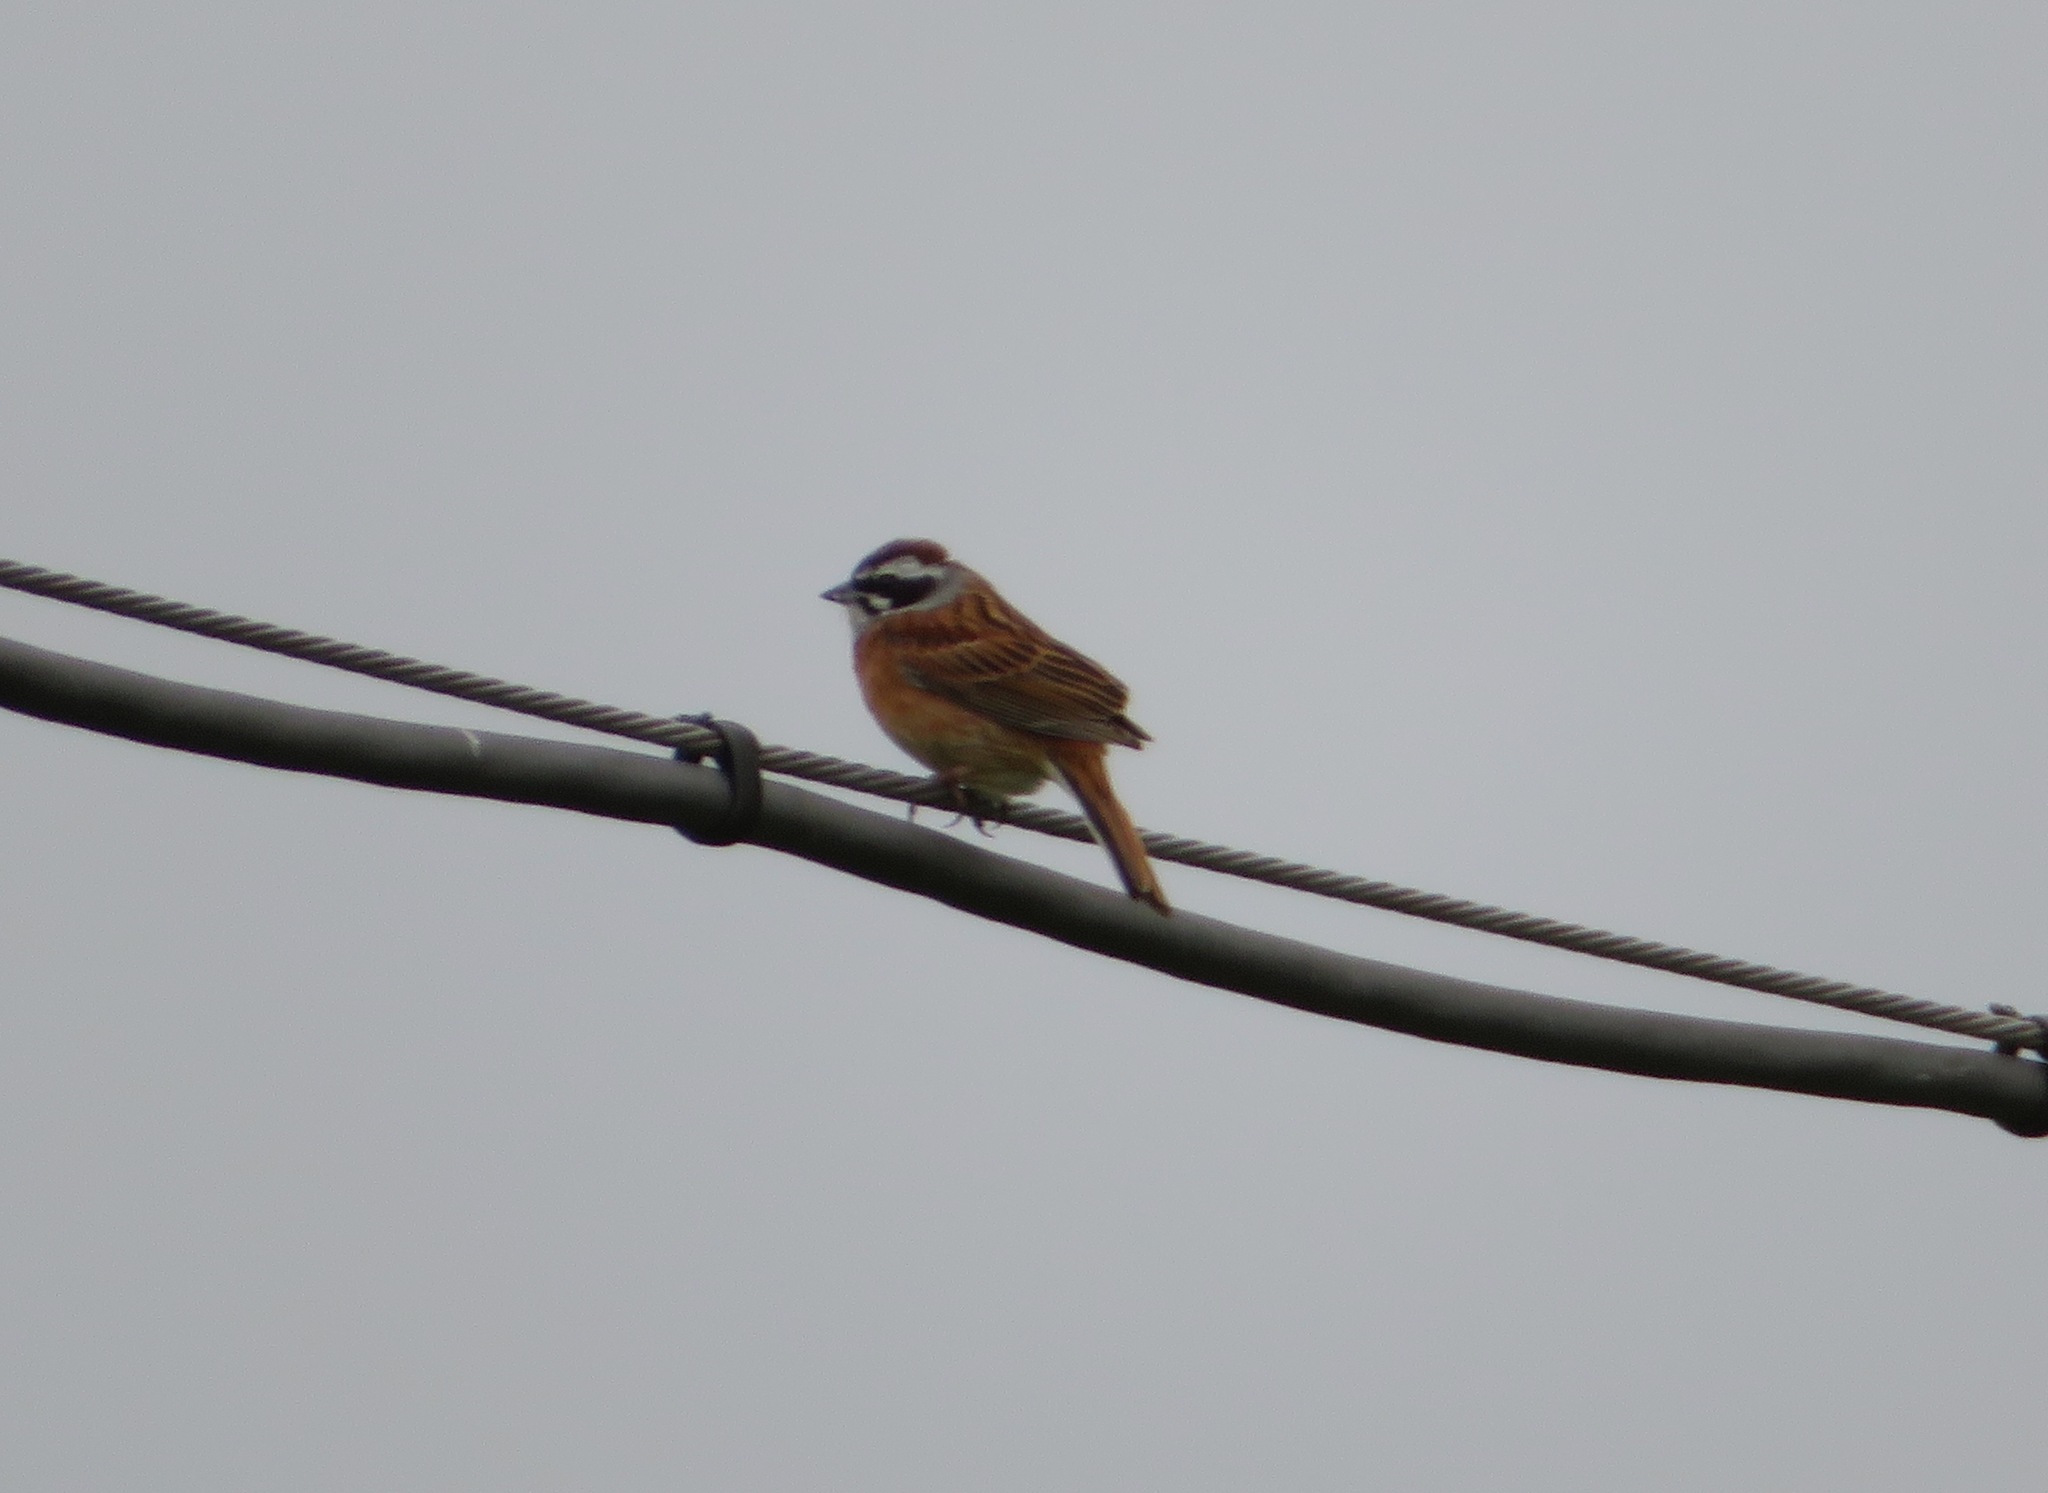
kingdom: Animalia
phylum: Chordata
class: Aves
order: Passeriformes
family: Emberizidae
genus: Emberiza
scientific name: Emberiza cioides
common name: Meadow bunting
